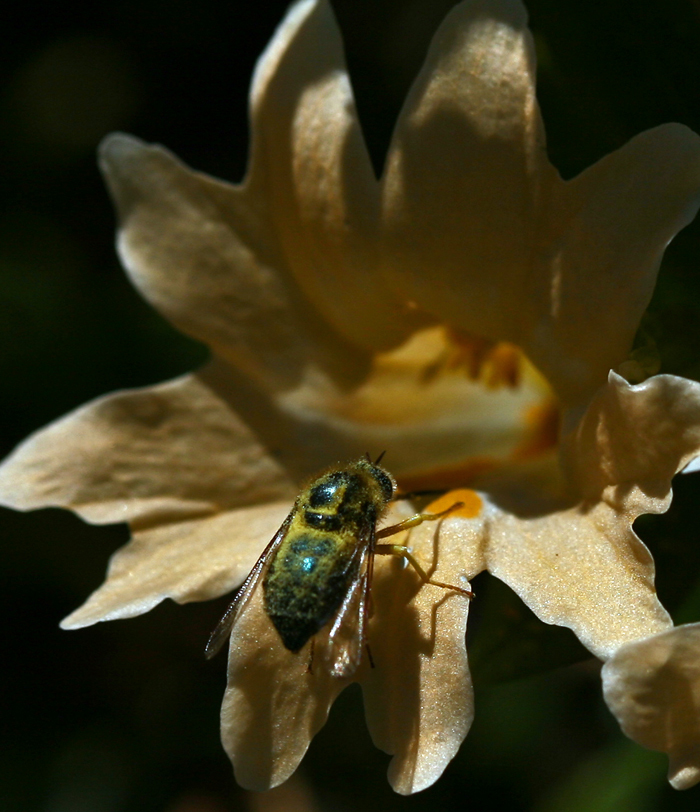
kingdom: Plantae
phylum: Tracheophyta
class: Magnoliopsida
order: Lamiales
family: Phrymaceae
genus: Diplacus
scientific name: Diplacus grandiflorus
